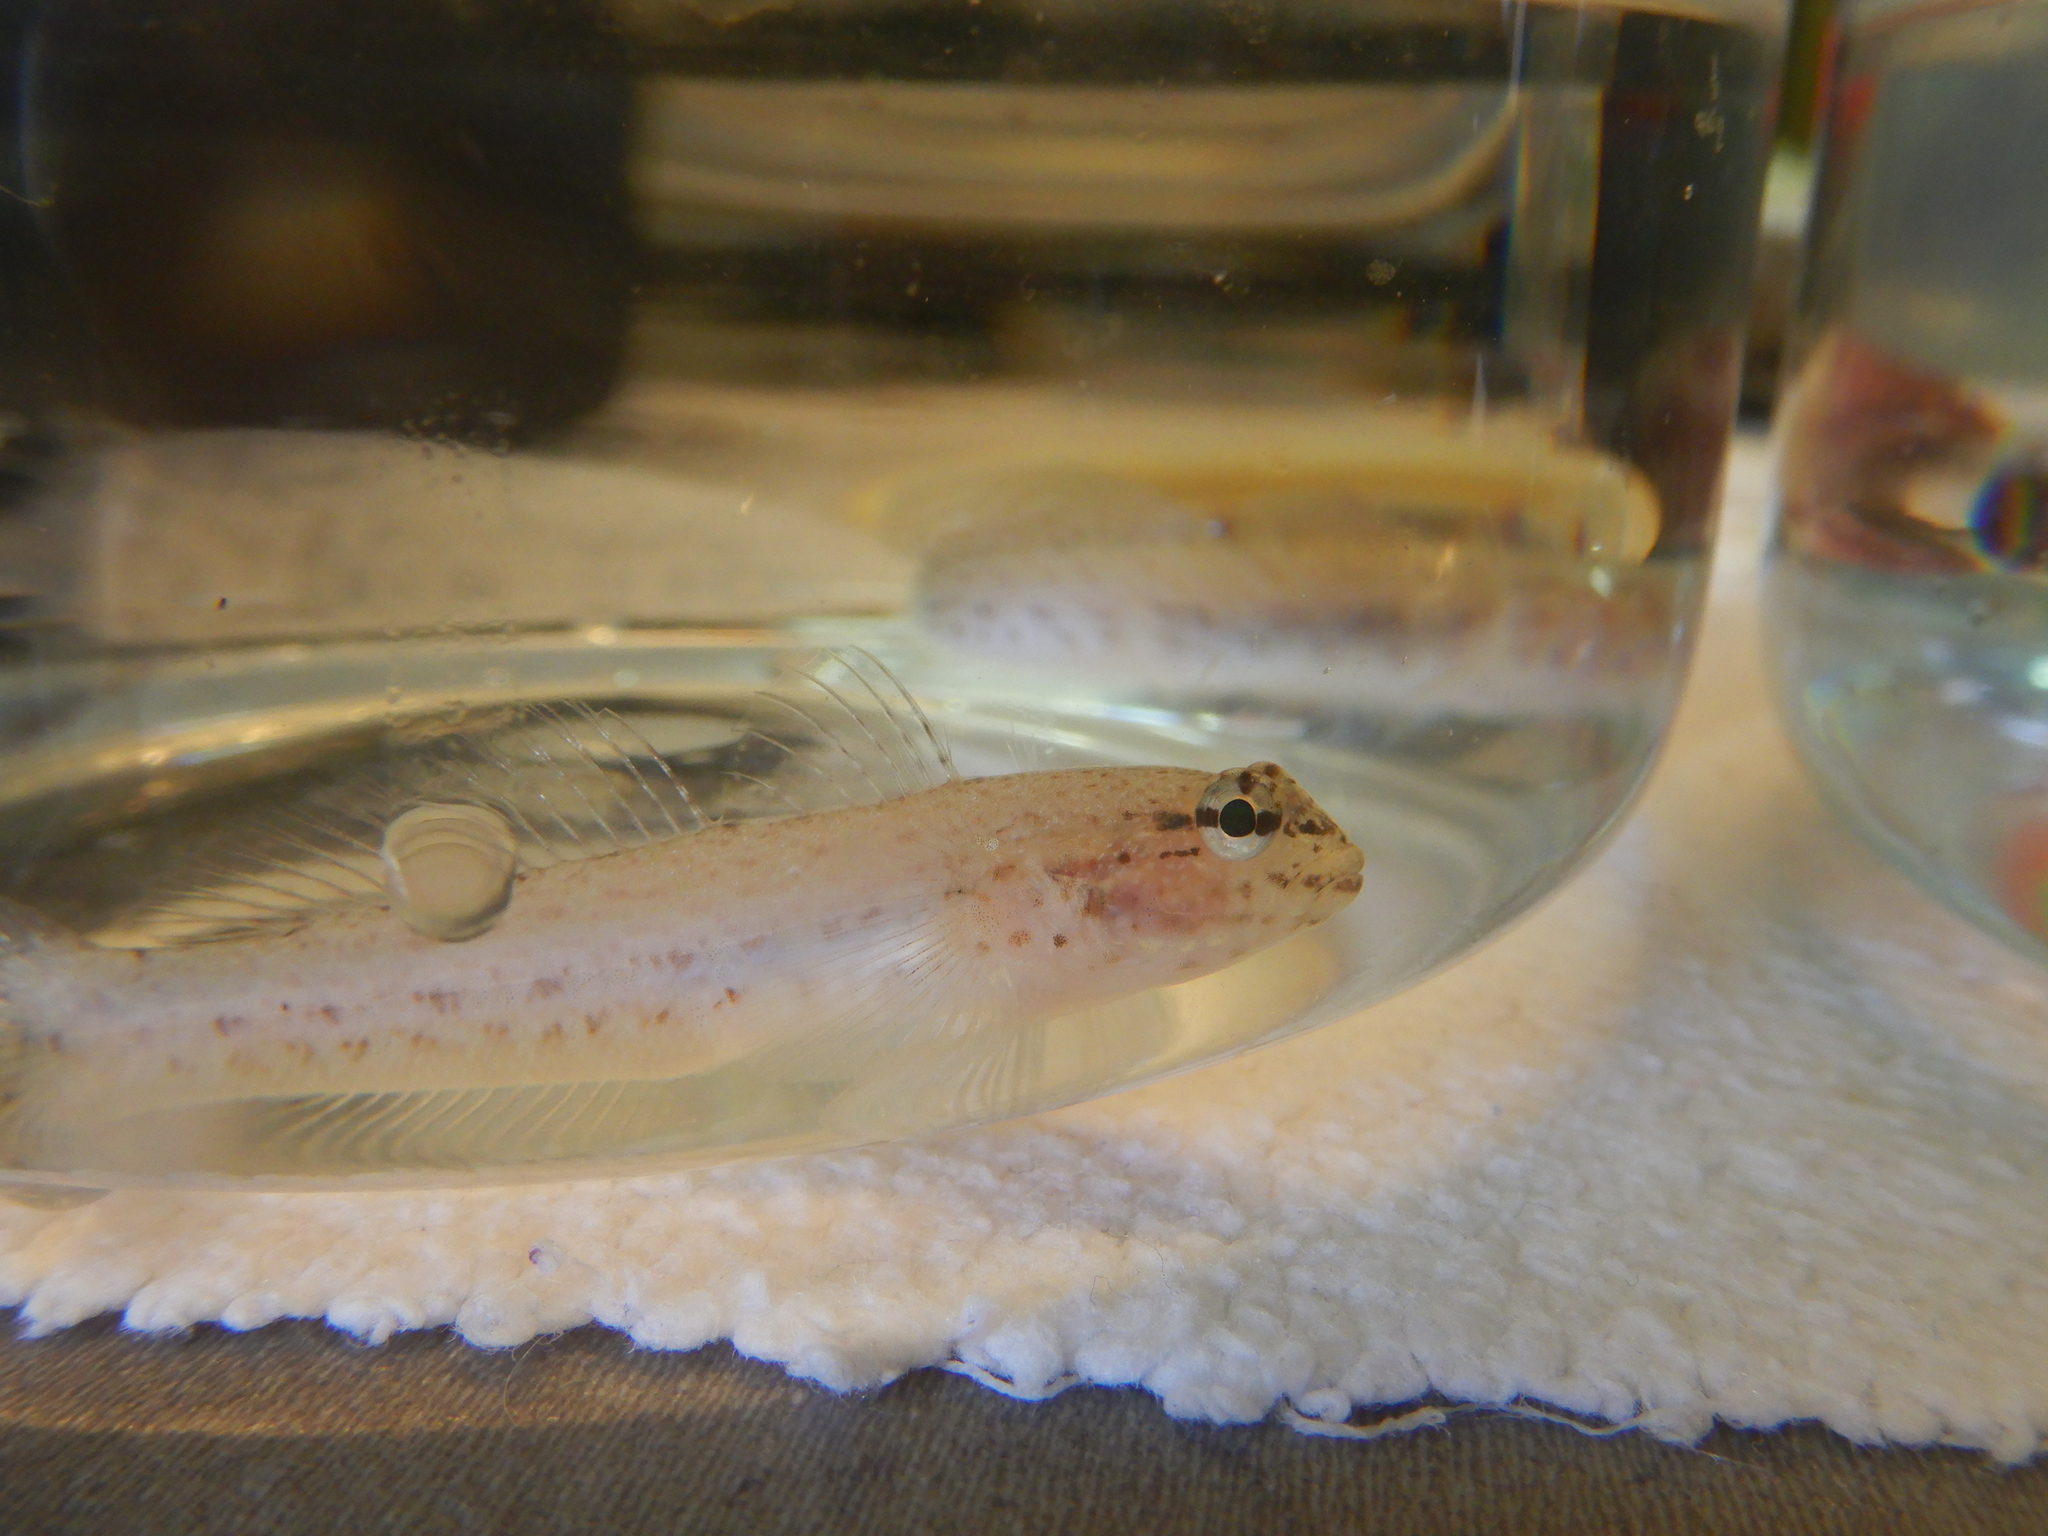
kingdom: Animalia
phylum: Chordata
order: Perciformes
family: Gobiidae
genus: Gobius
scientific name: Gobius incognitus
